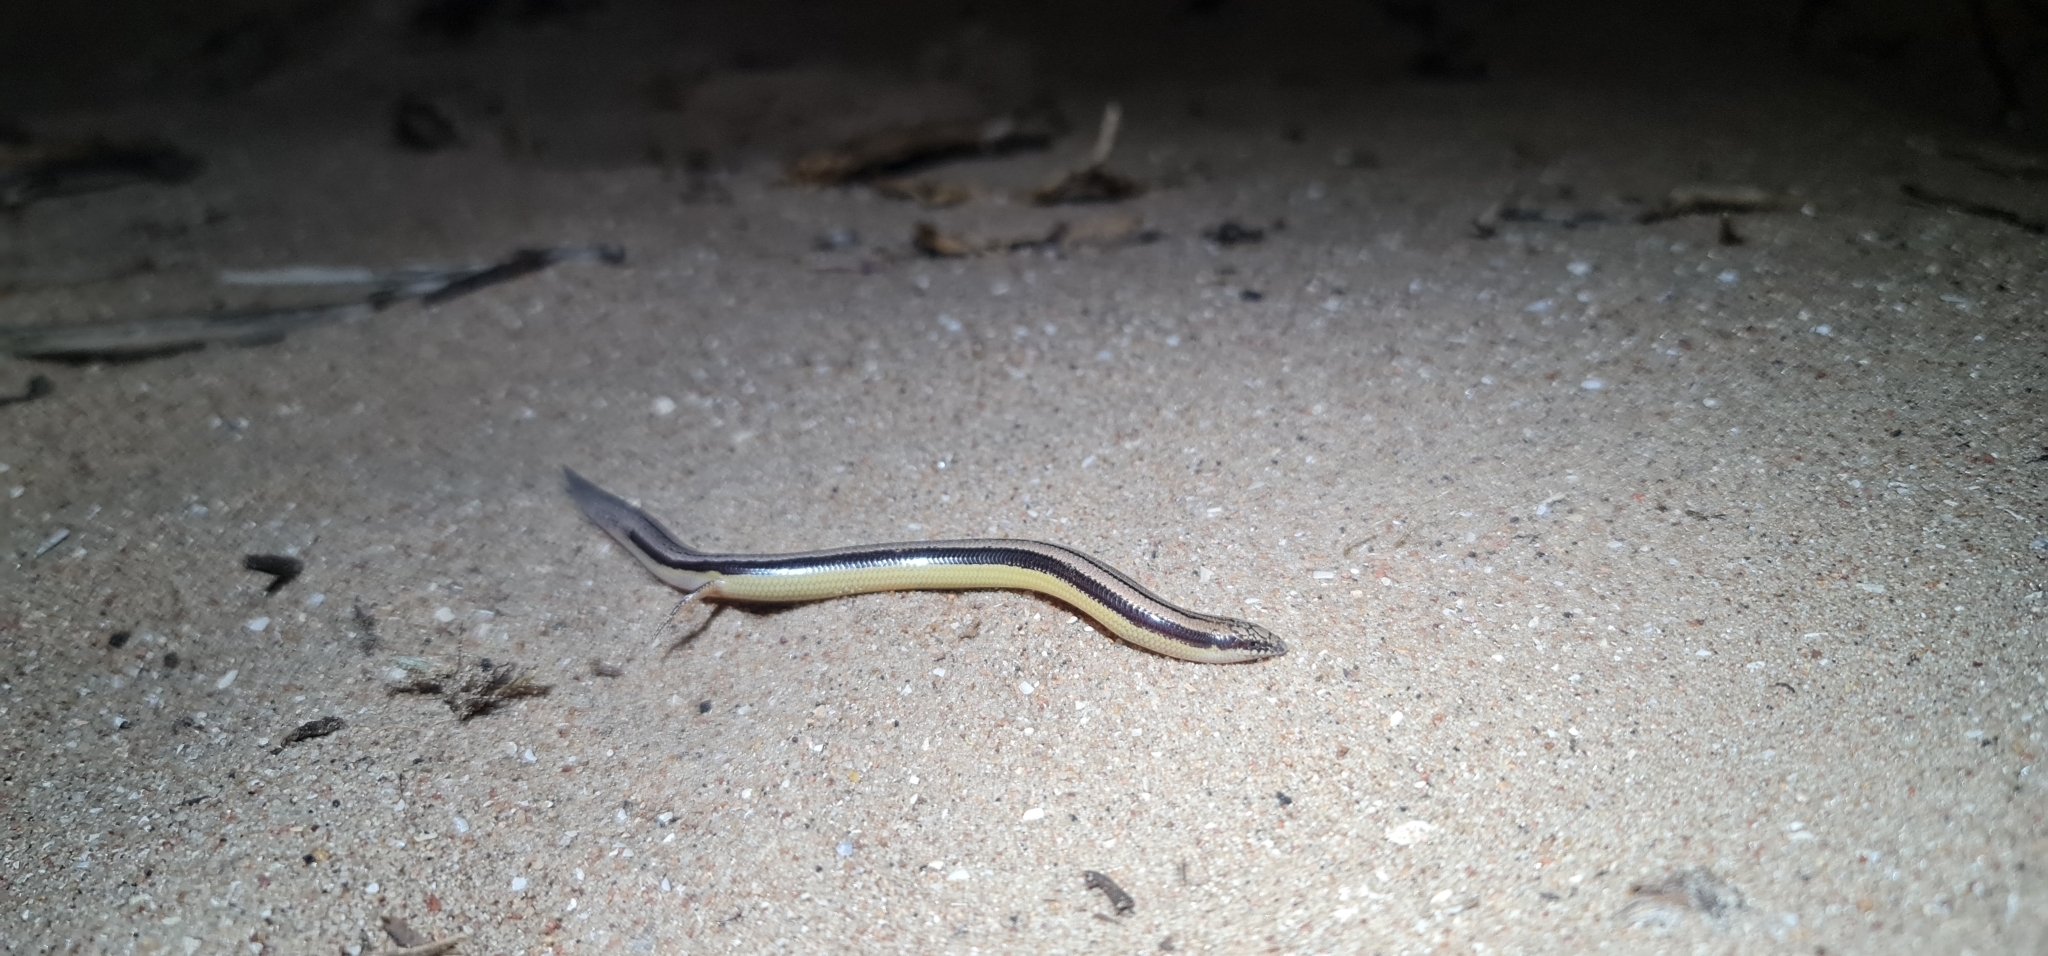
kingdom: Animalia
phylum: Chordata
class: Squamata
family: Scincidae
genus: Lerista
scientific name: Lerista edwardsae
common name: Myall slider
